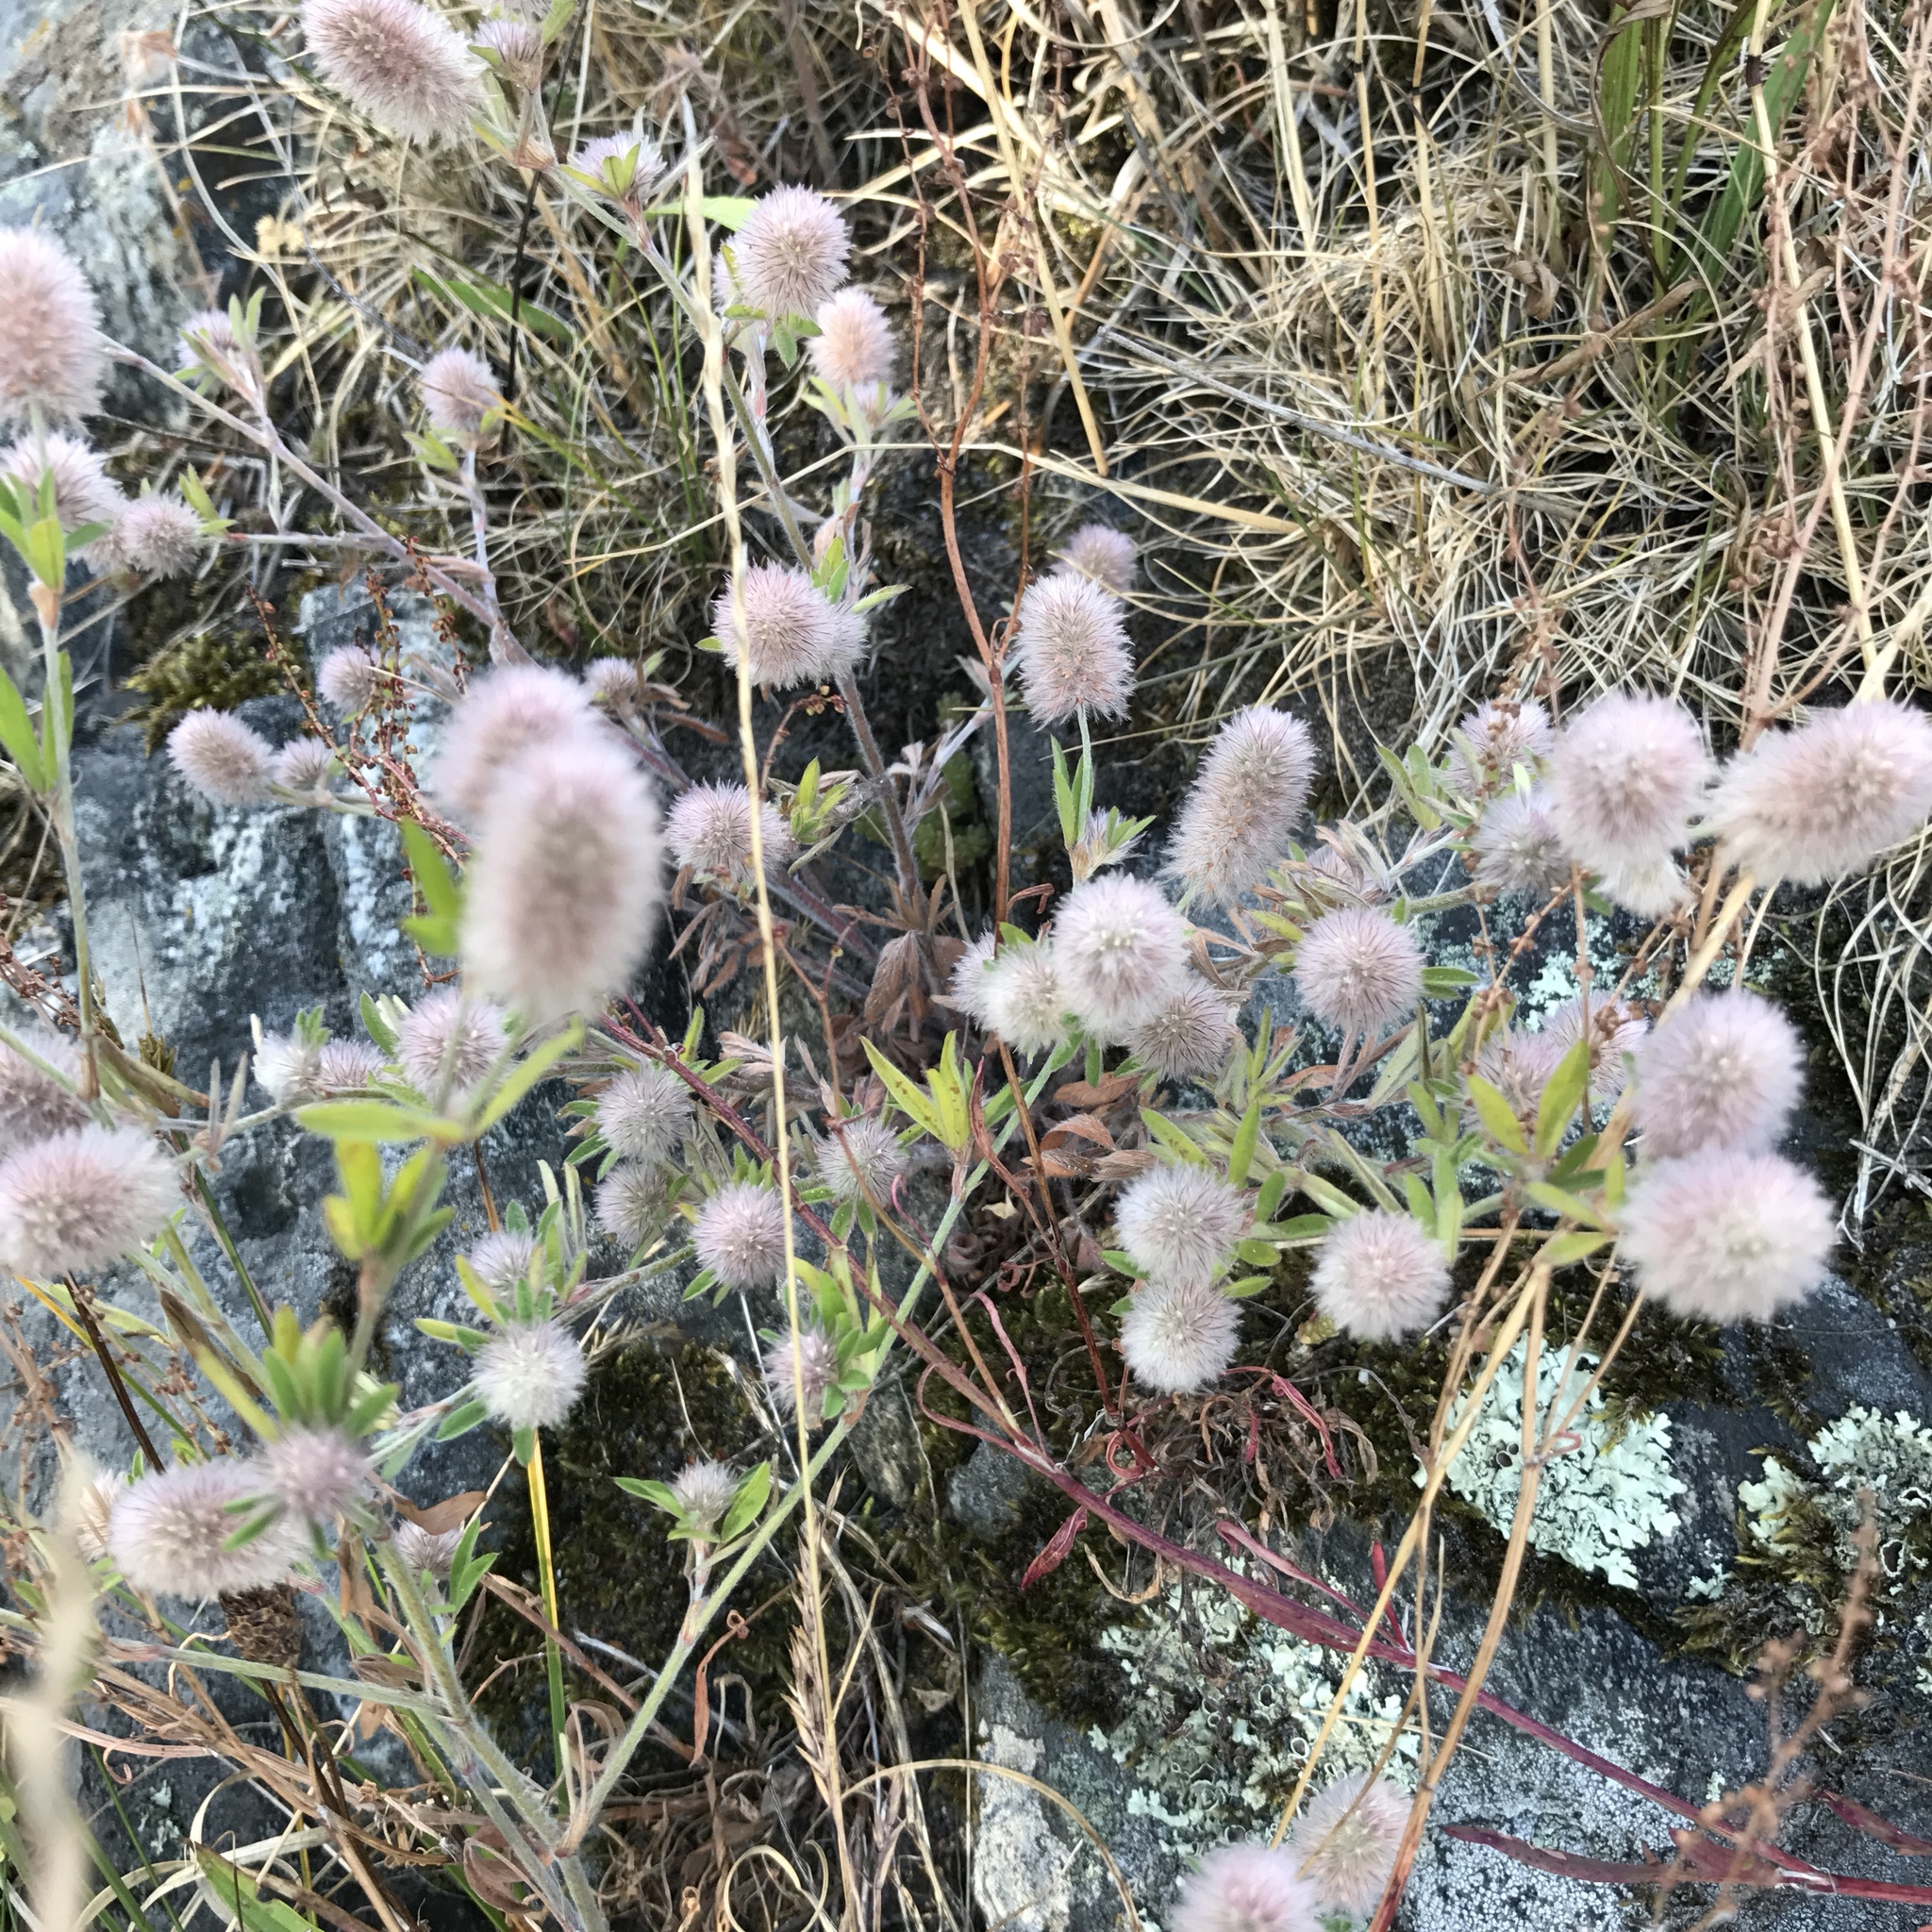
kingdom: Plantae
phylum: Tracheophyta
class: Magnoliopsida
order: Fabales
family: Fabaceae
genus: Trifolium
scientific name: Trifolium arvense
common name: Hare's-foot clover
